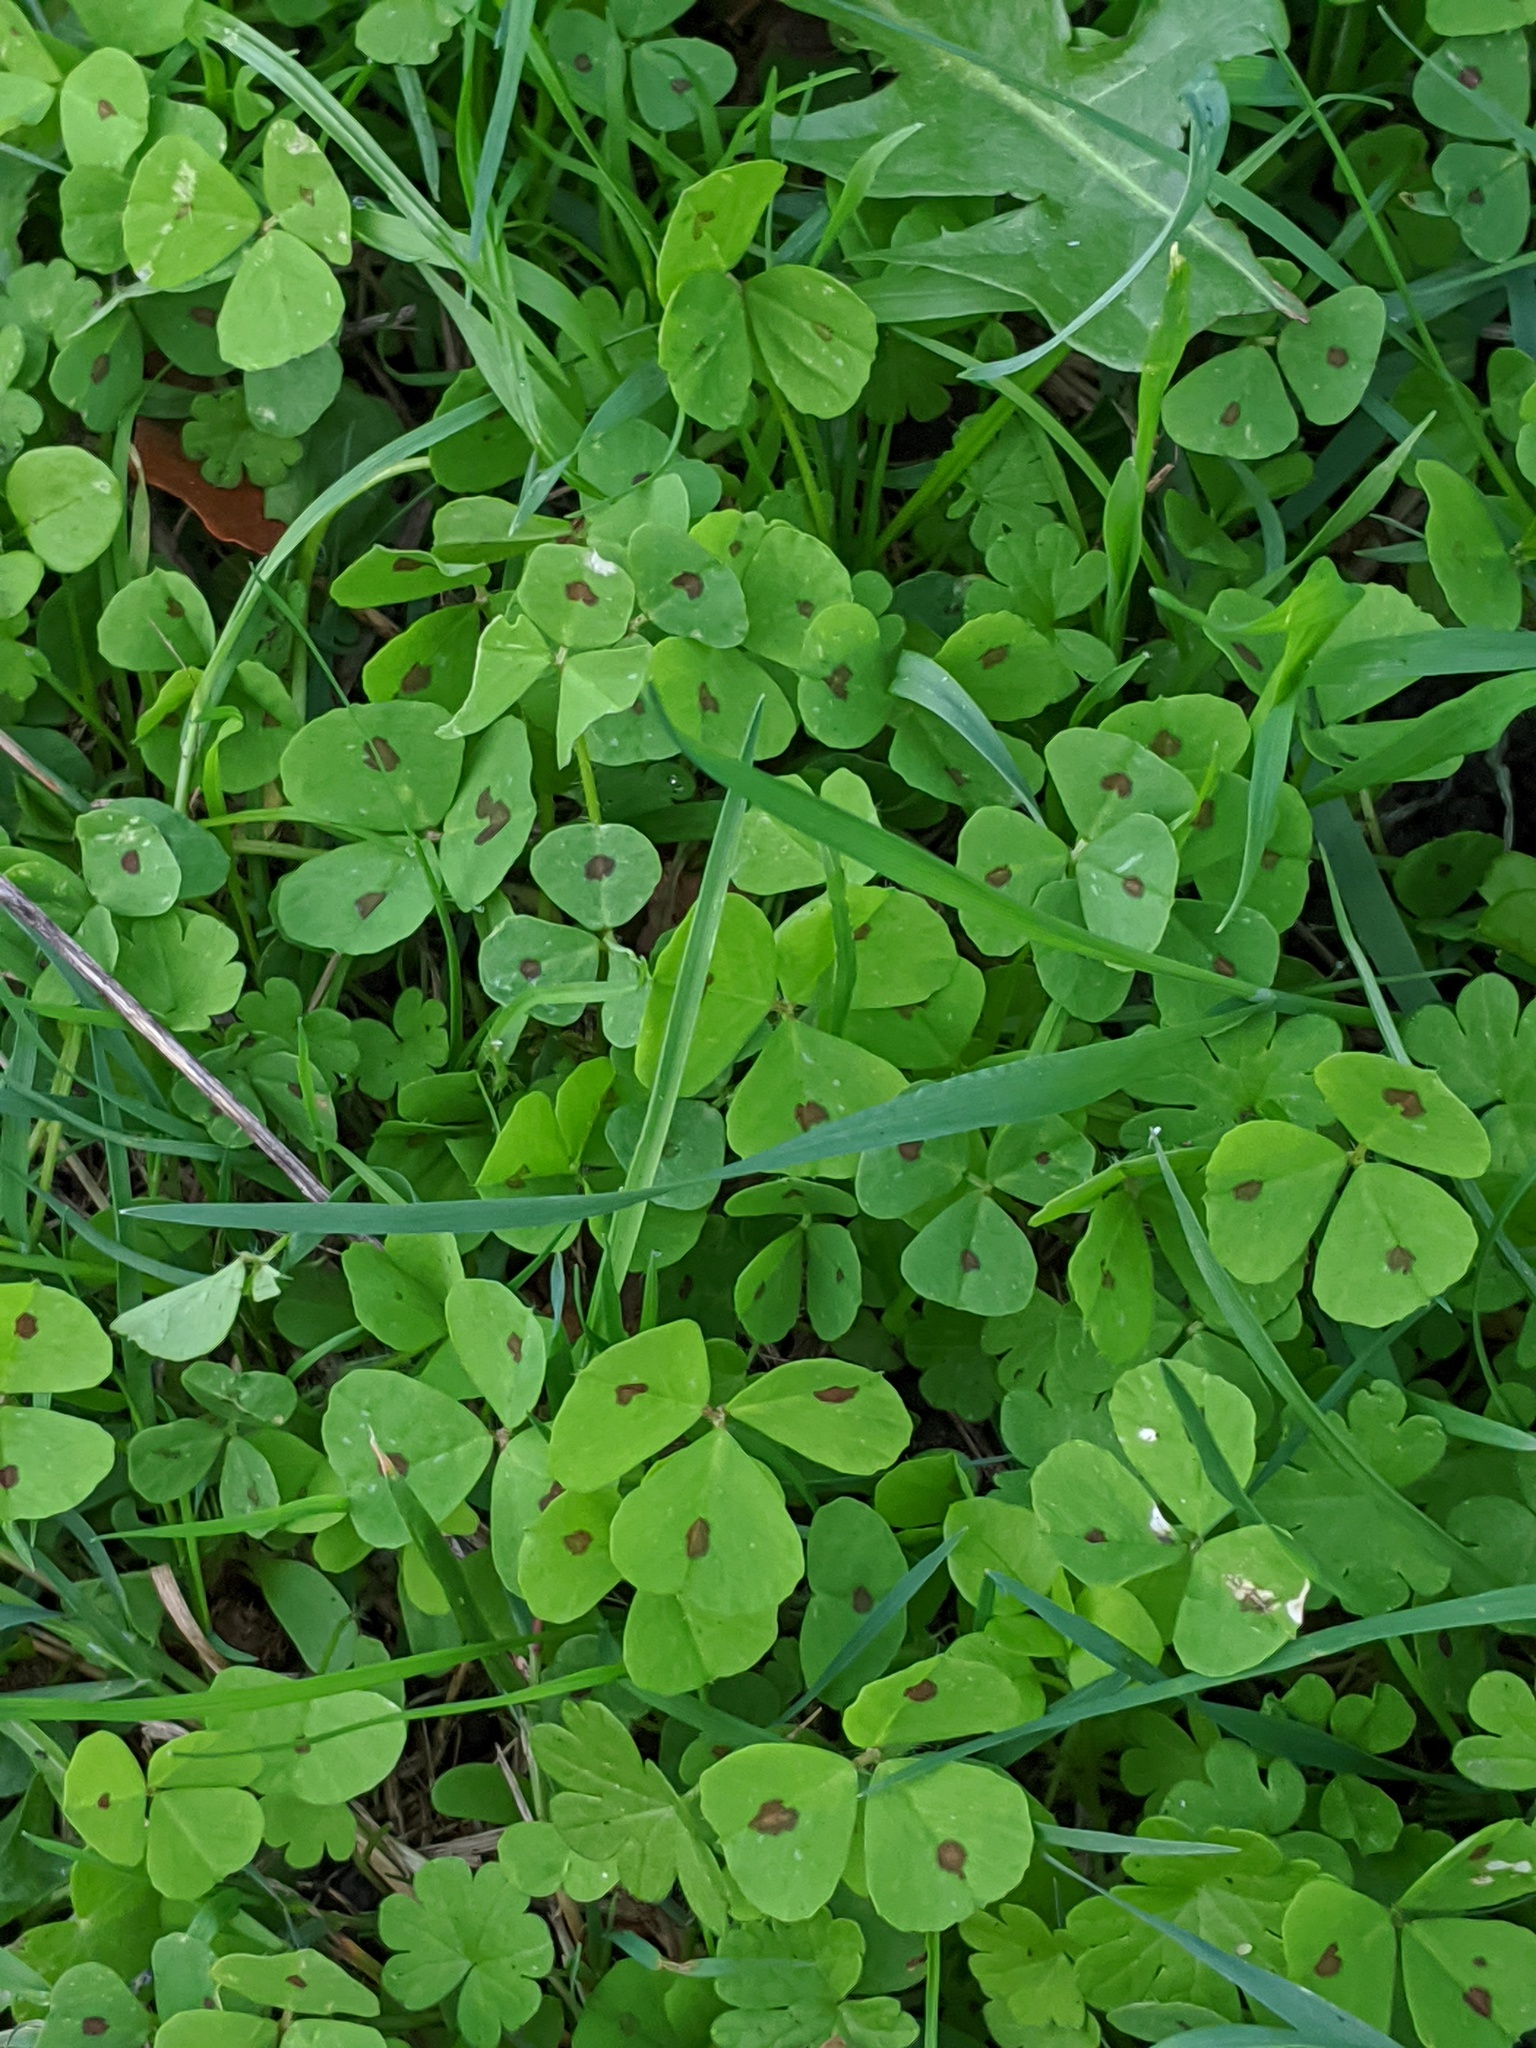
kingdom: Plantae
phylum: Tracheophyta
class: Magnoliopsida
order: Fabales
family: Fabaceae
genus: Medicago
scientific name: Medicago arabica
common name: Spotted medick
